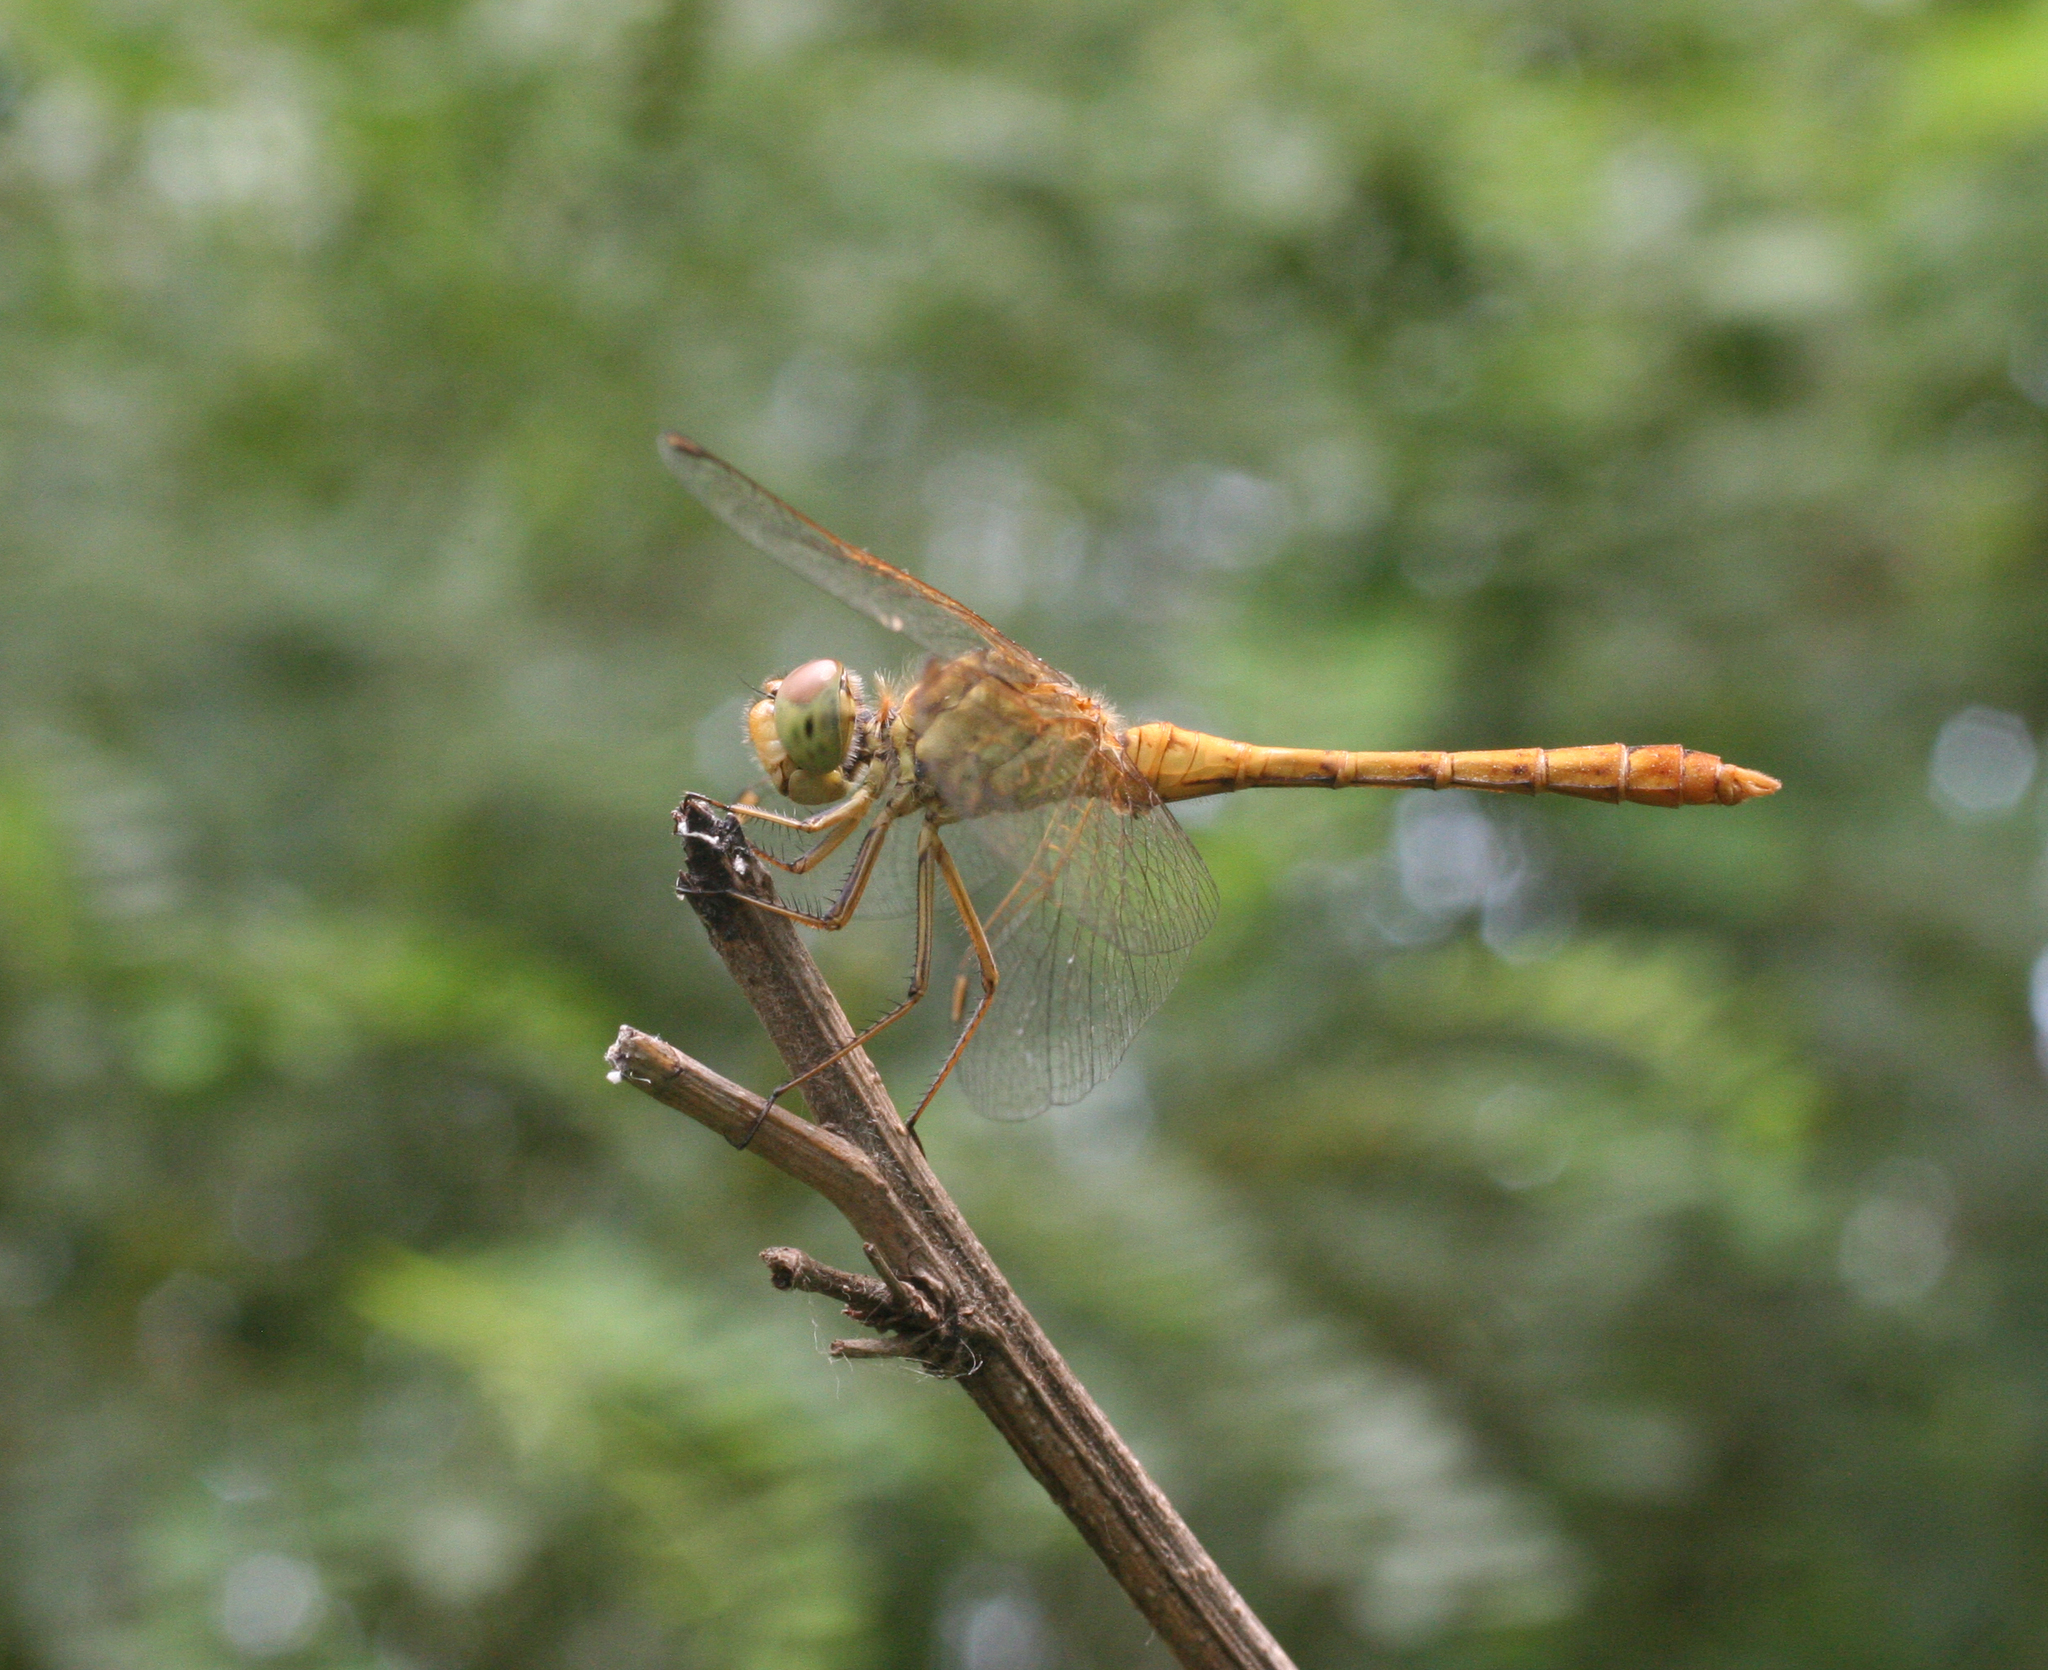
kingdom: Animalia
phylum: Arthropoda
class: Insecta
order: Odonata
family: Libellulidae
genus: Sympetrum
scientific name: Sympetrum meridionale
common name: Southern darter
